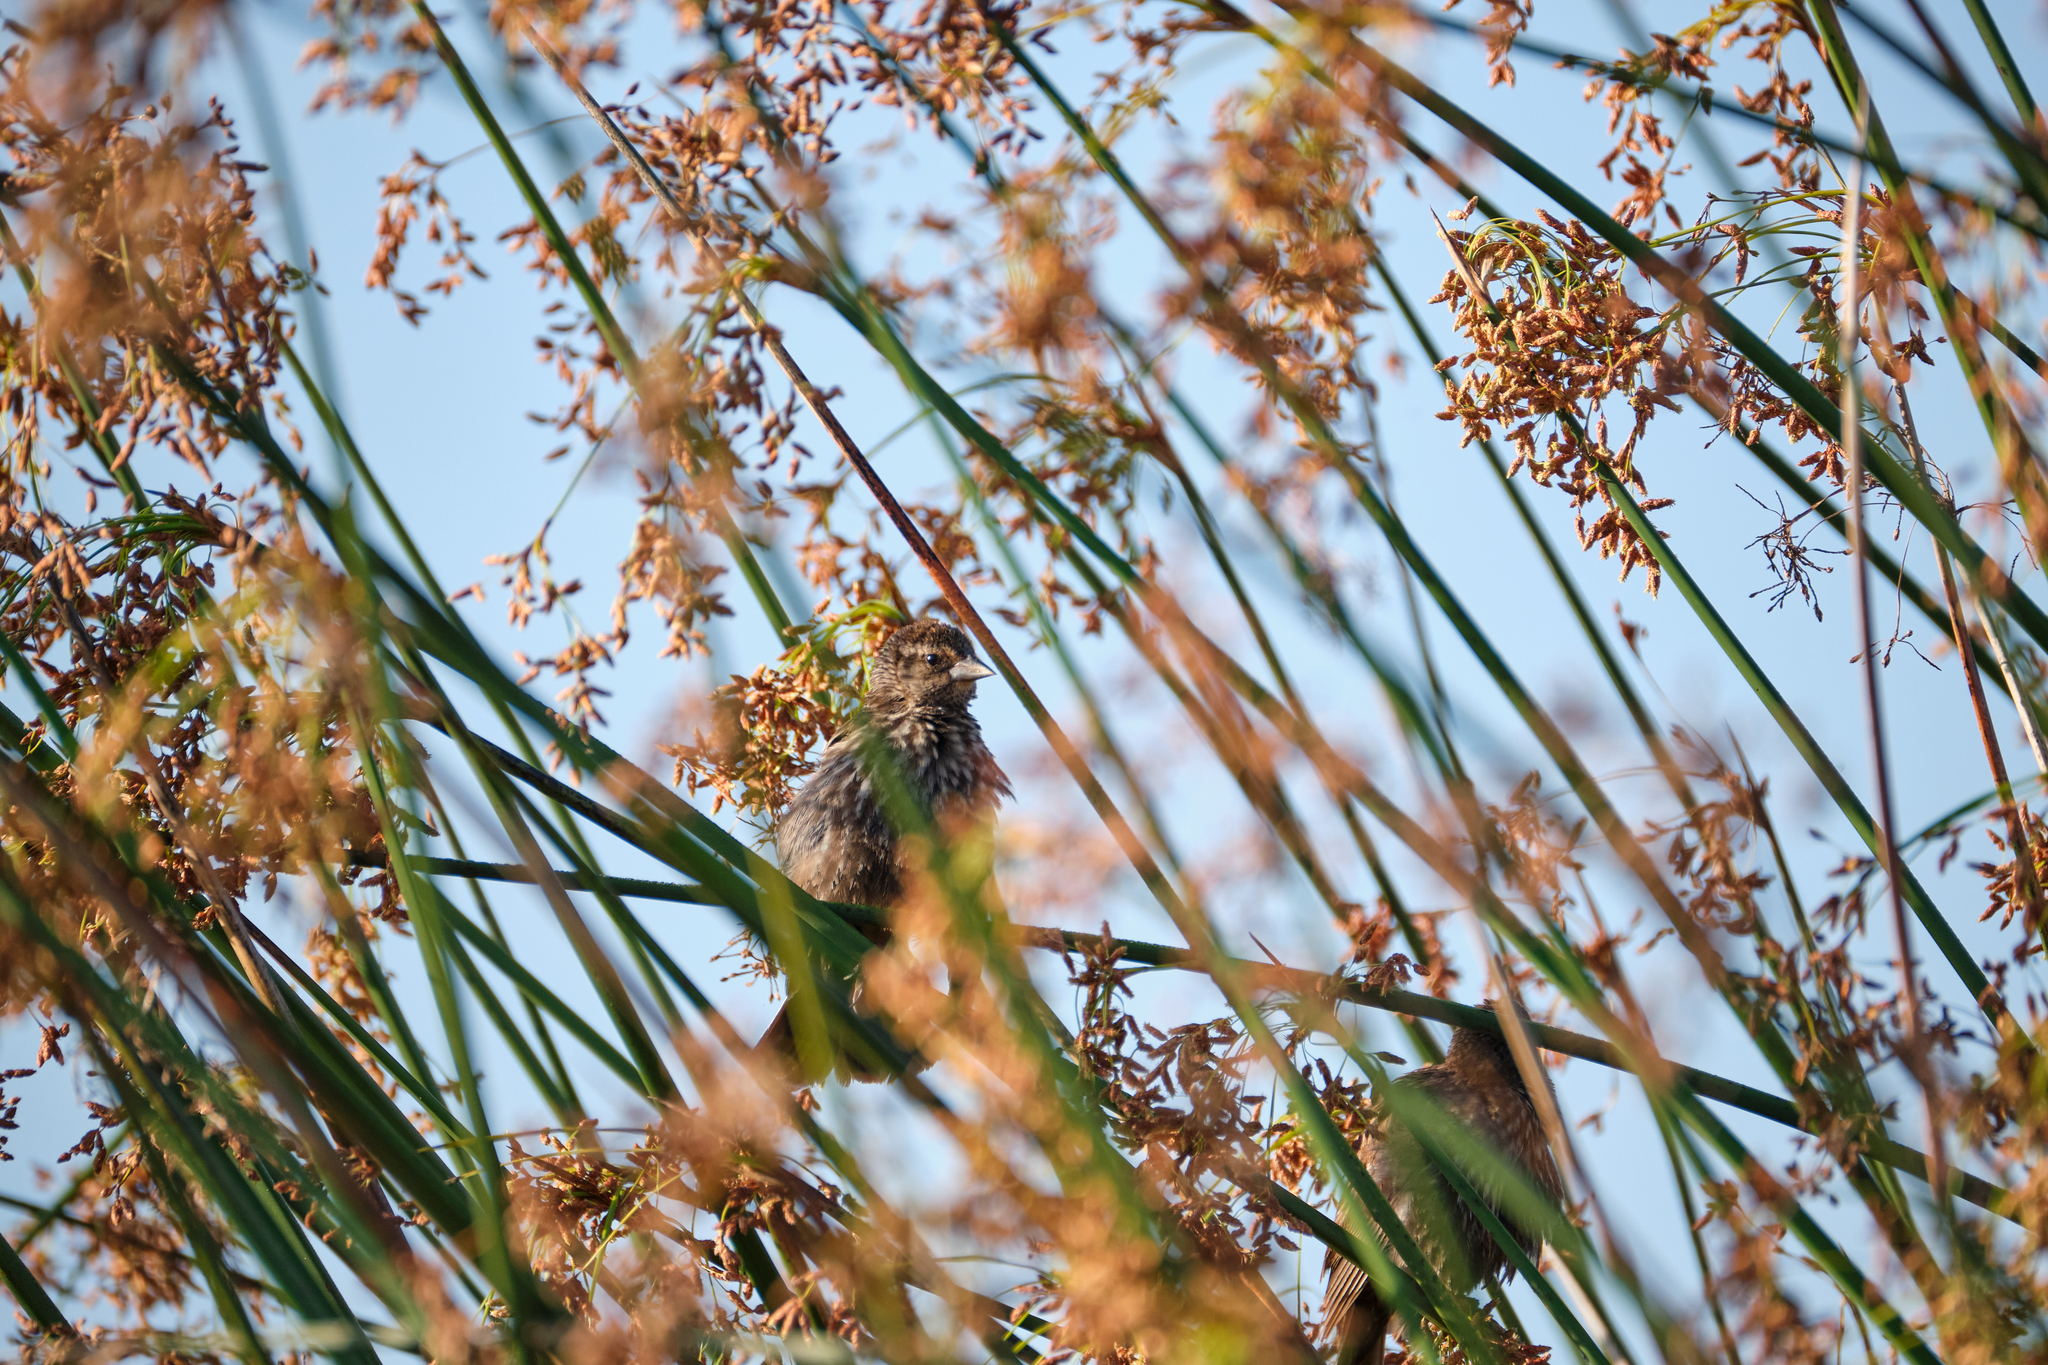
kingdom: Animalia
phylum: Chordata
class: Aves
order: Passeriformes
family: Icteridae
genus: Agelaius
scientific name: Agelaius phoeniceus
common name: Red-winged blackbird
